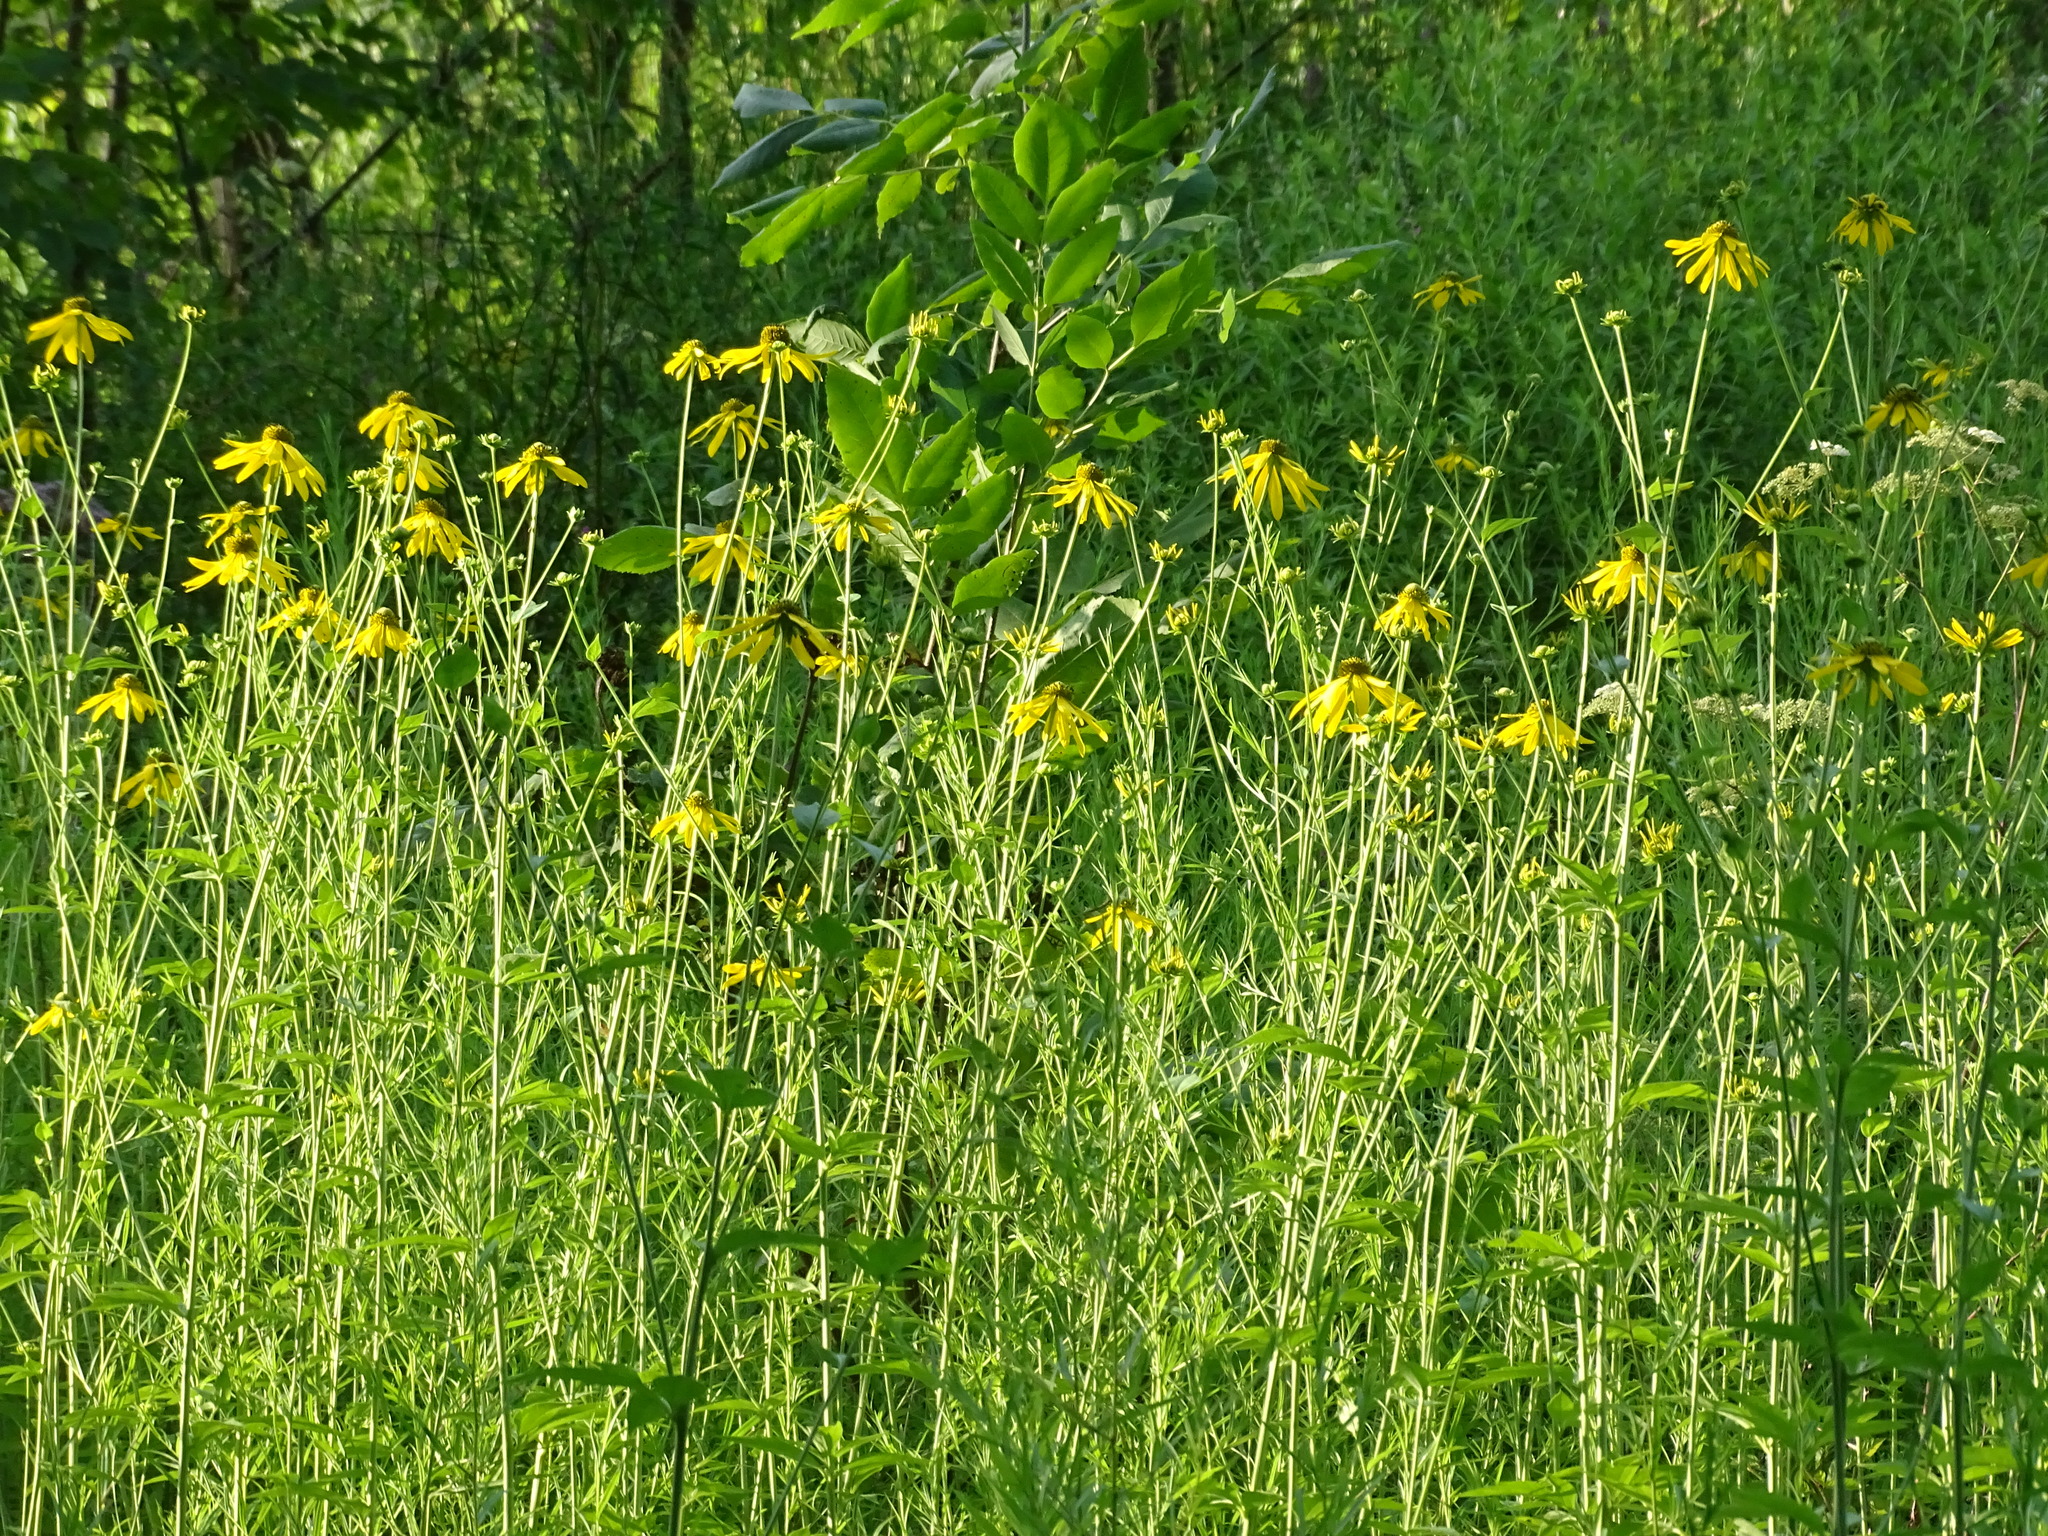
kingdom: Plantae
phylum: Tracheophyta
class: Magnoliopsida
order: Asterales
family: Asteraceae
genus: Rudbeckia
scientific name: Rudbeckia laciniata
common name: Coneflower
